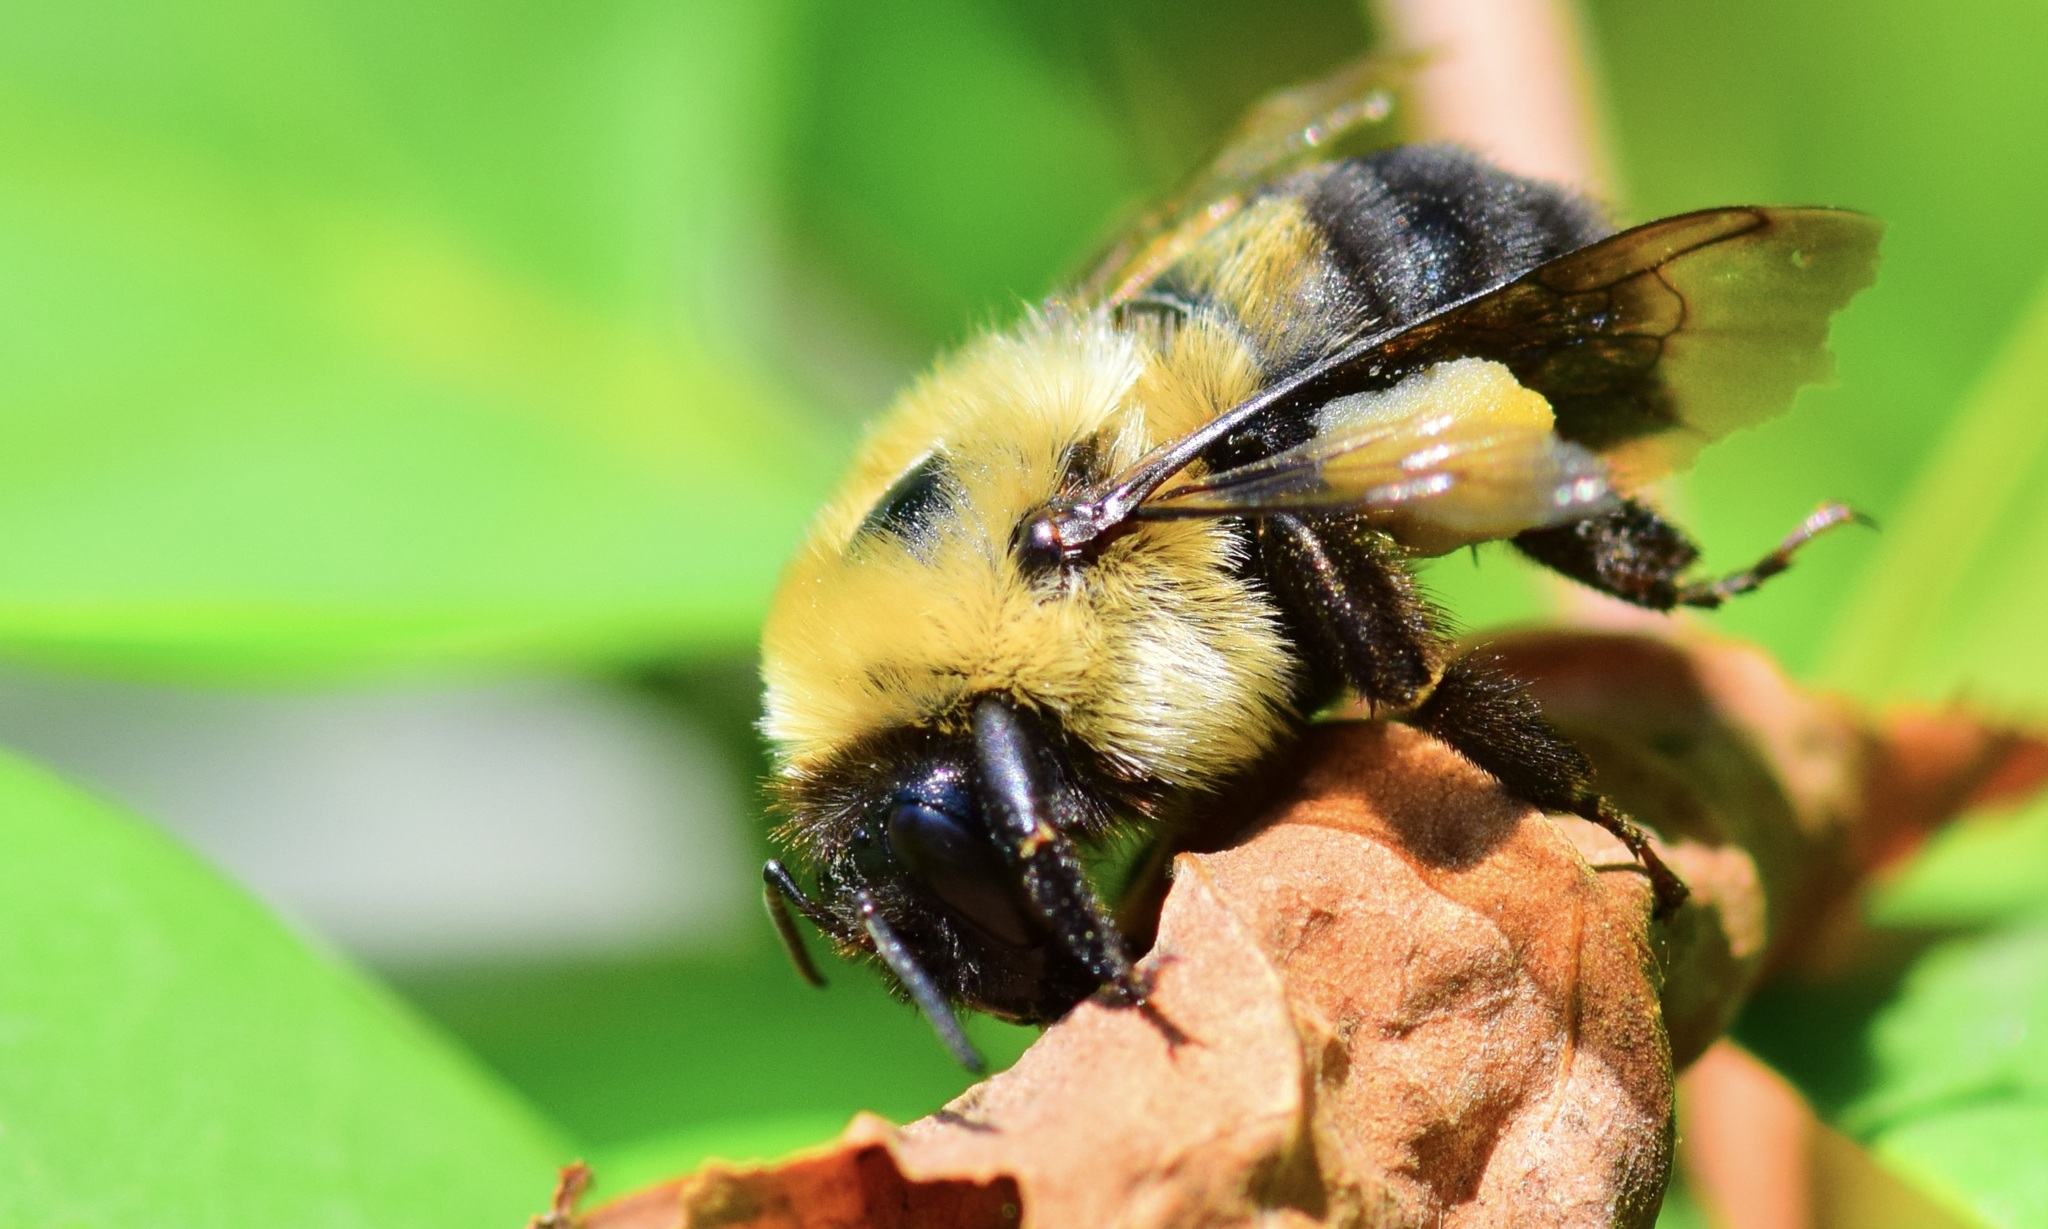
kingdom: Animalia
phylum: Arthropoda
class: Insecta
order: Hymenoptera
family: Apidae
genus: Bombus
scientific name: Bombus griseocollis
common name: Brown-belted bumble bee
